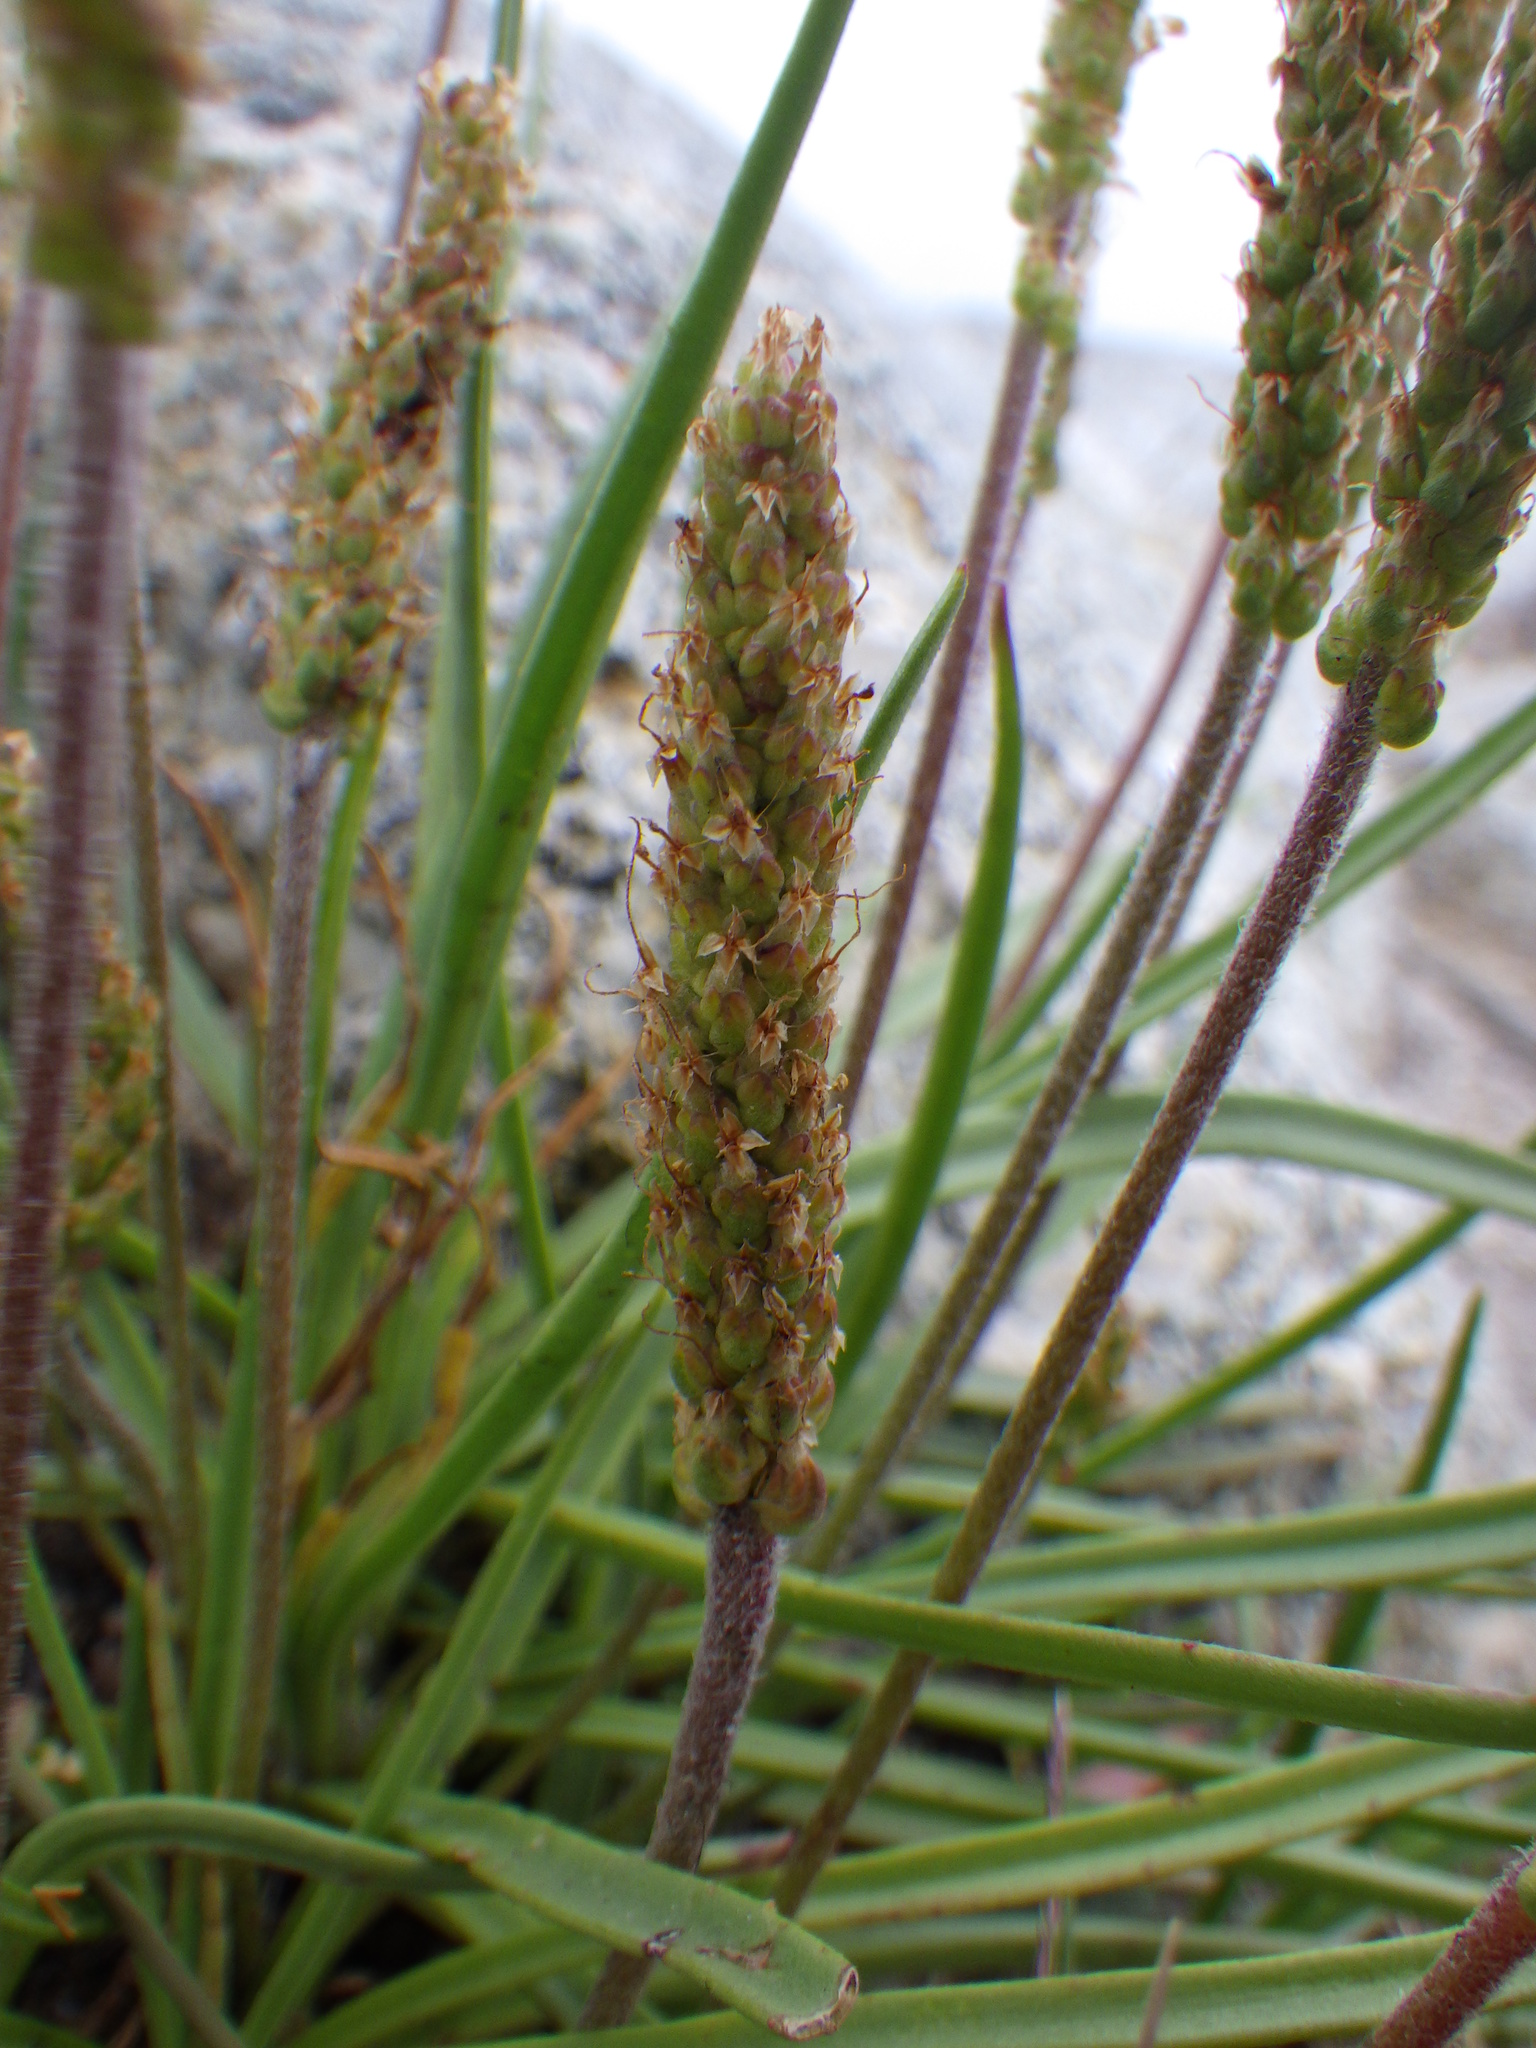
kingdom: Plantae
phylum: Tracheophyta
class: Magnoliopsida
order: Lamiales
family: Plantaginaceae
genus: Plantago
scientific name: Plantago maritima
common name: Sea plantain
